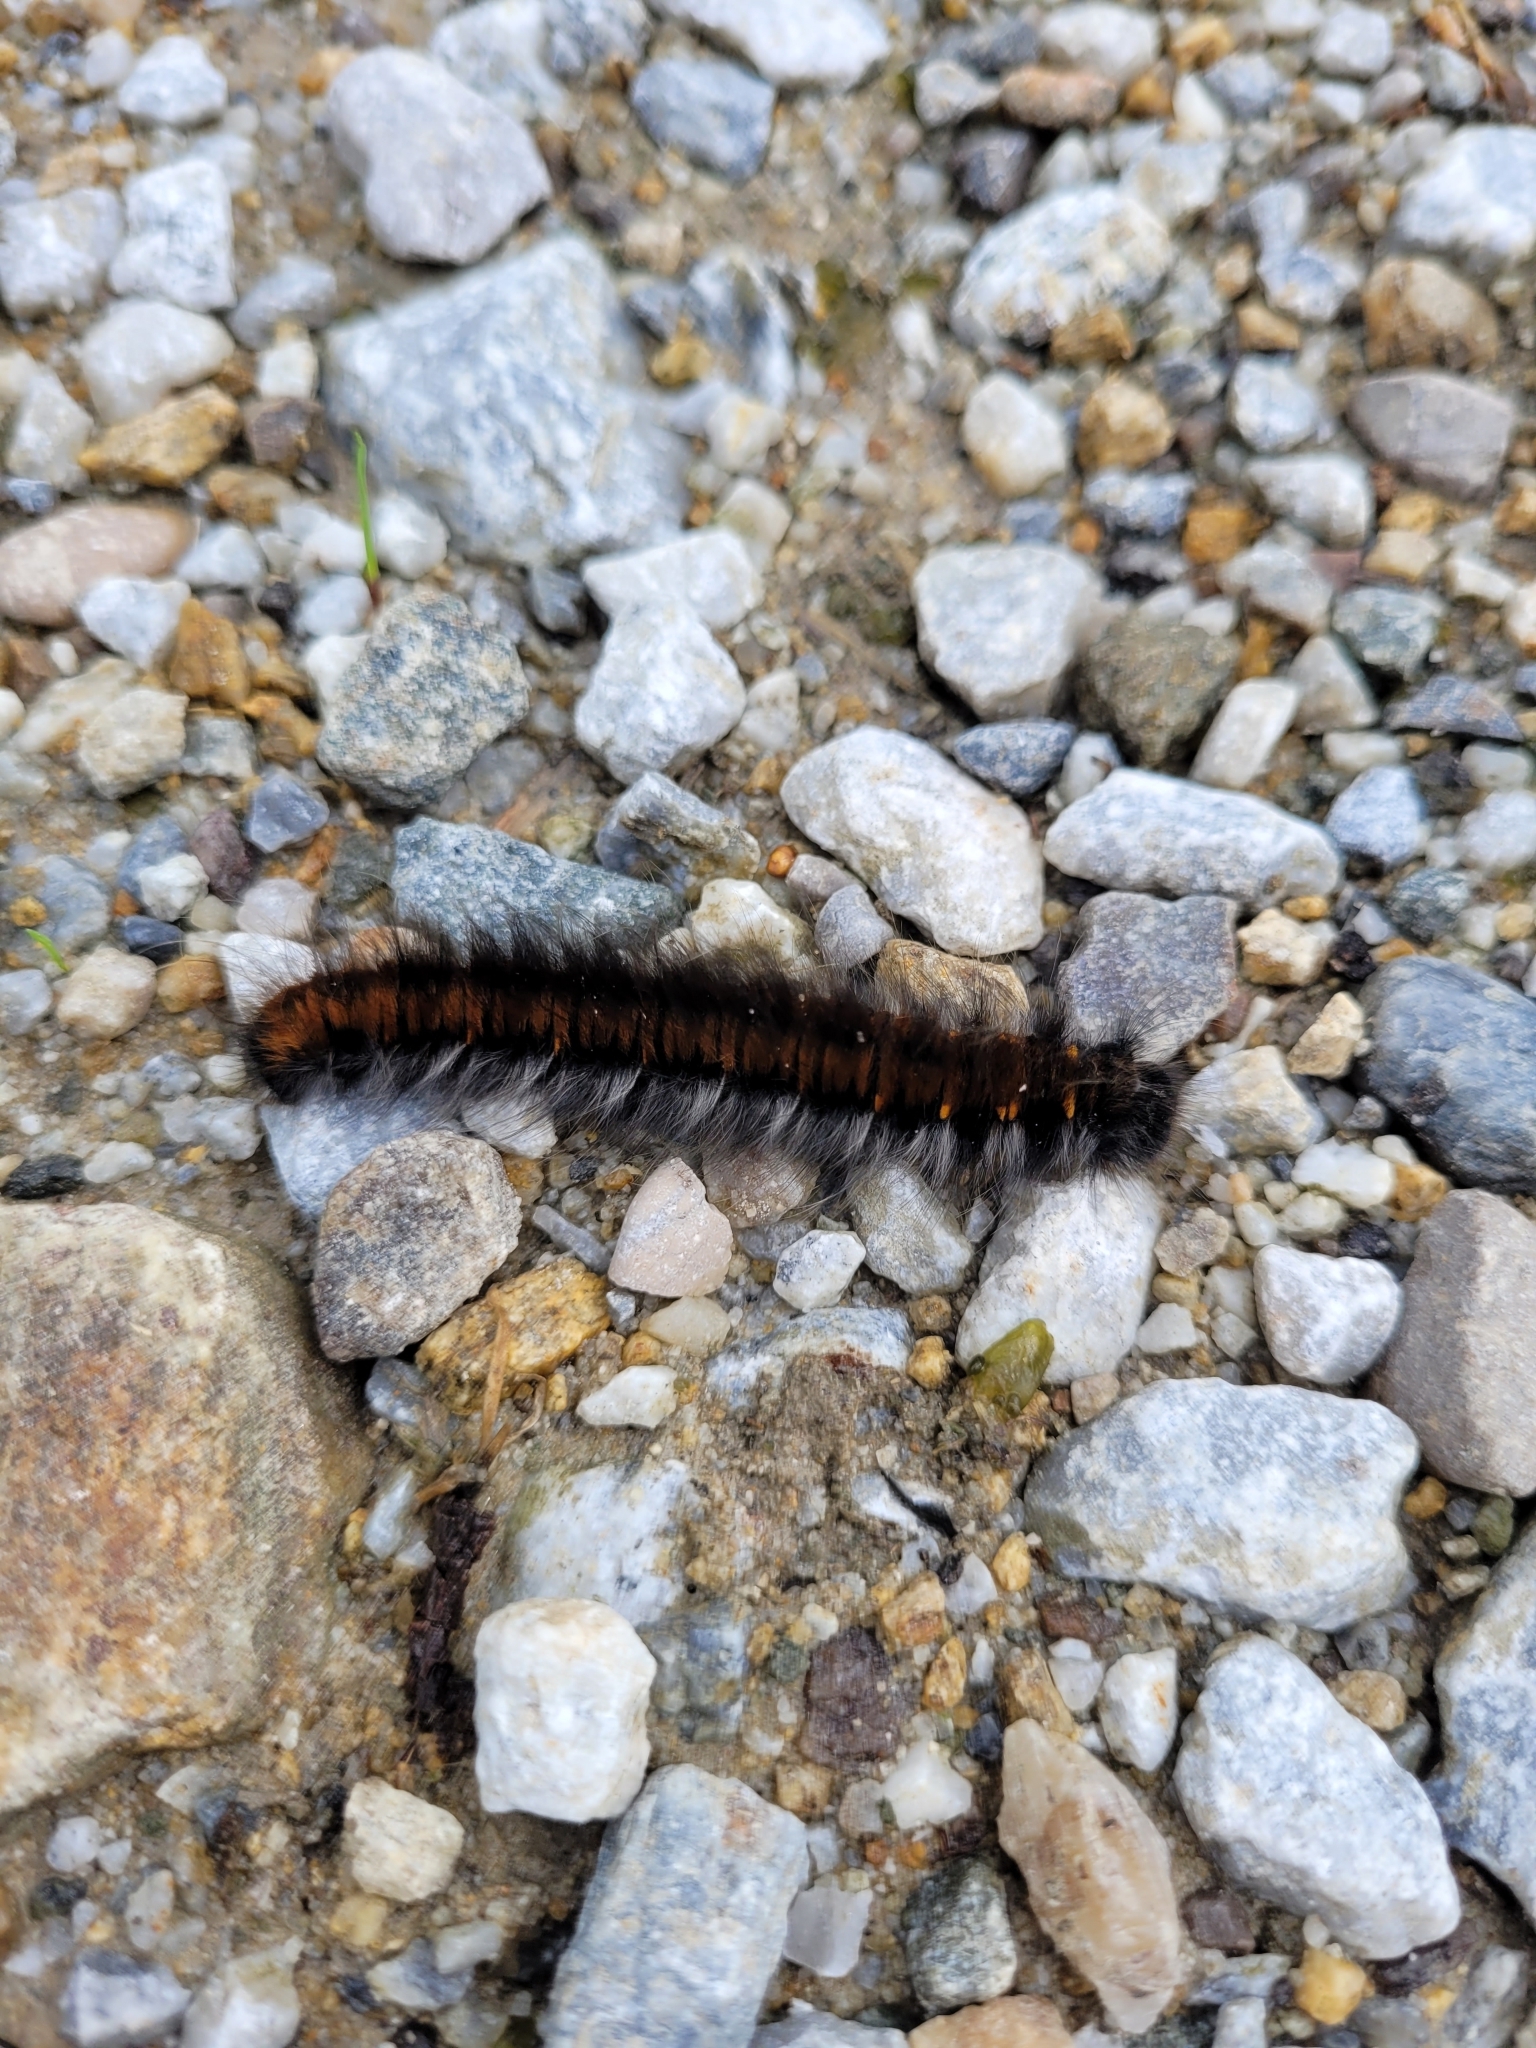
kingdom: Animalia
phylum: Arthropoda
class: Insecta
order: Lepidoptera
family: Lasiocampidae
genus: Macrothylacia
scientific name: Macrothylacia rubi
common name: Fox moth
